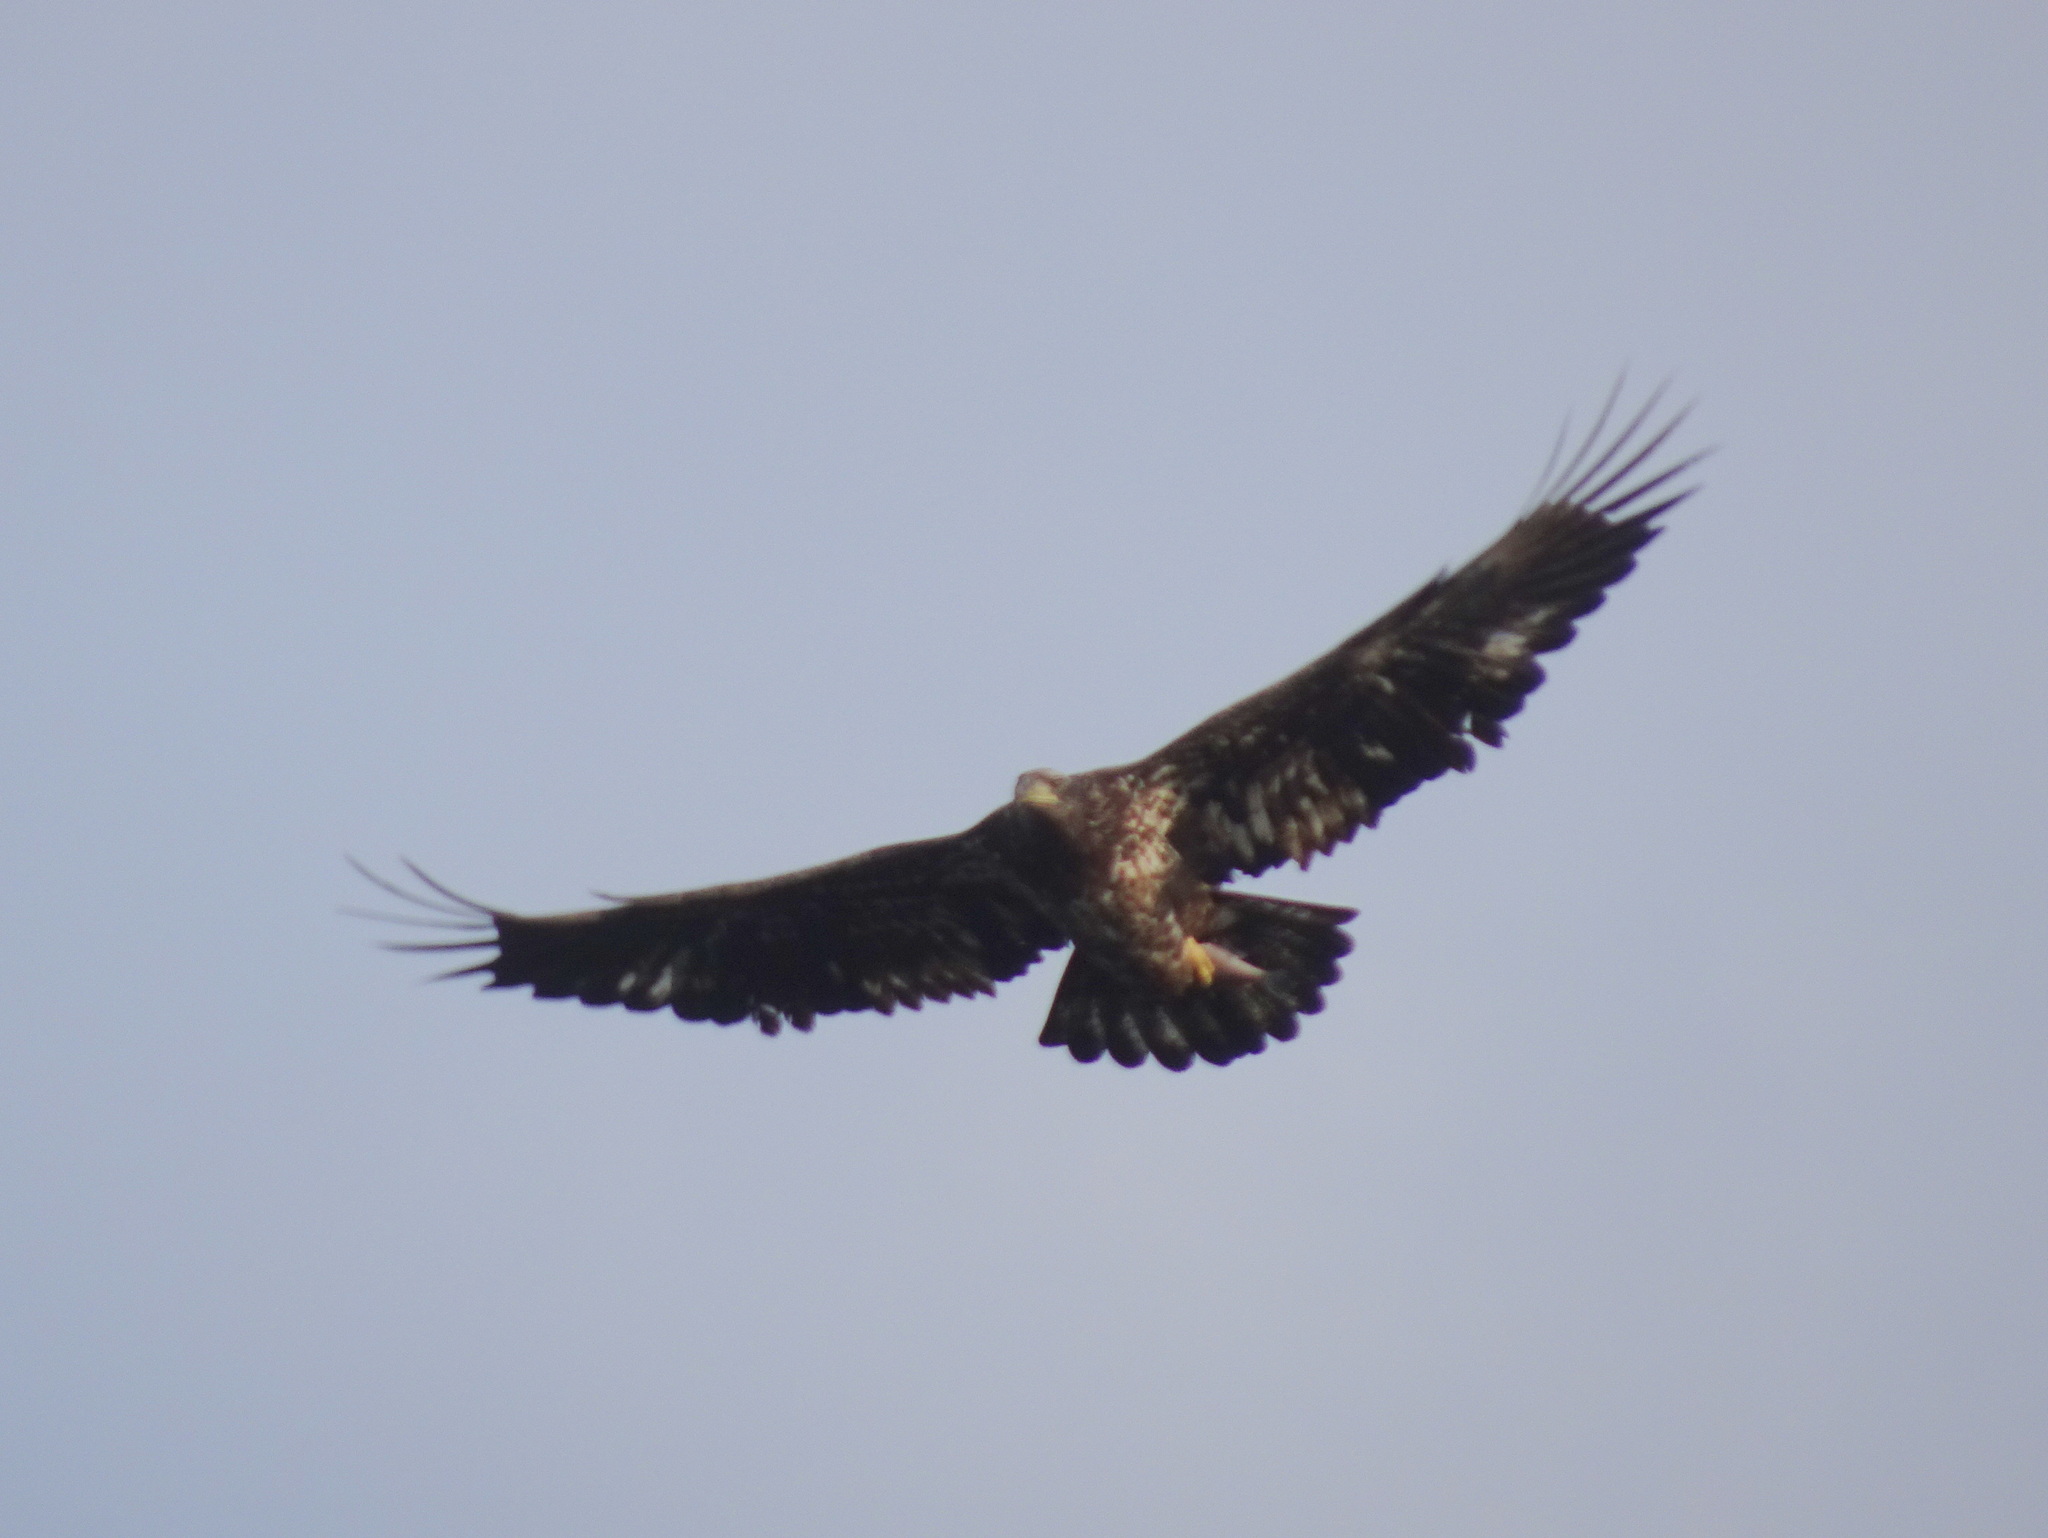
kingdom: Animalia
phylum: Chordata
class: Aves
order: Accipitriformes
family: Accipitridae
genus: Haliaeetus
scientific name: Haliaeetus leucocephalus
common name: Bald eagle
